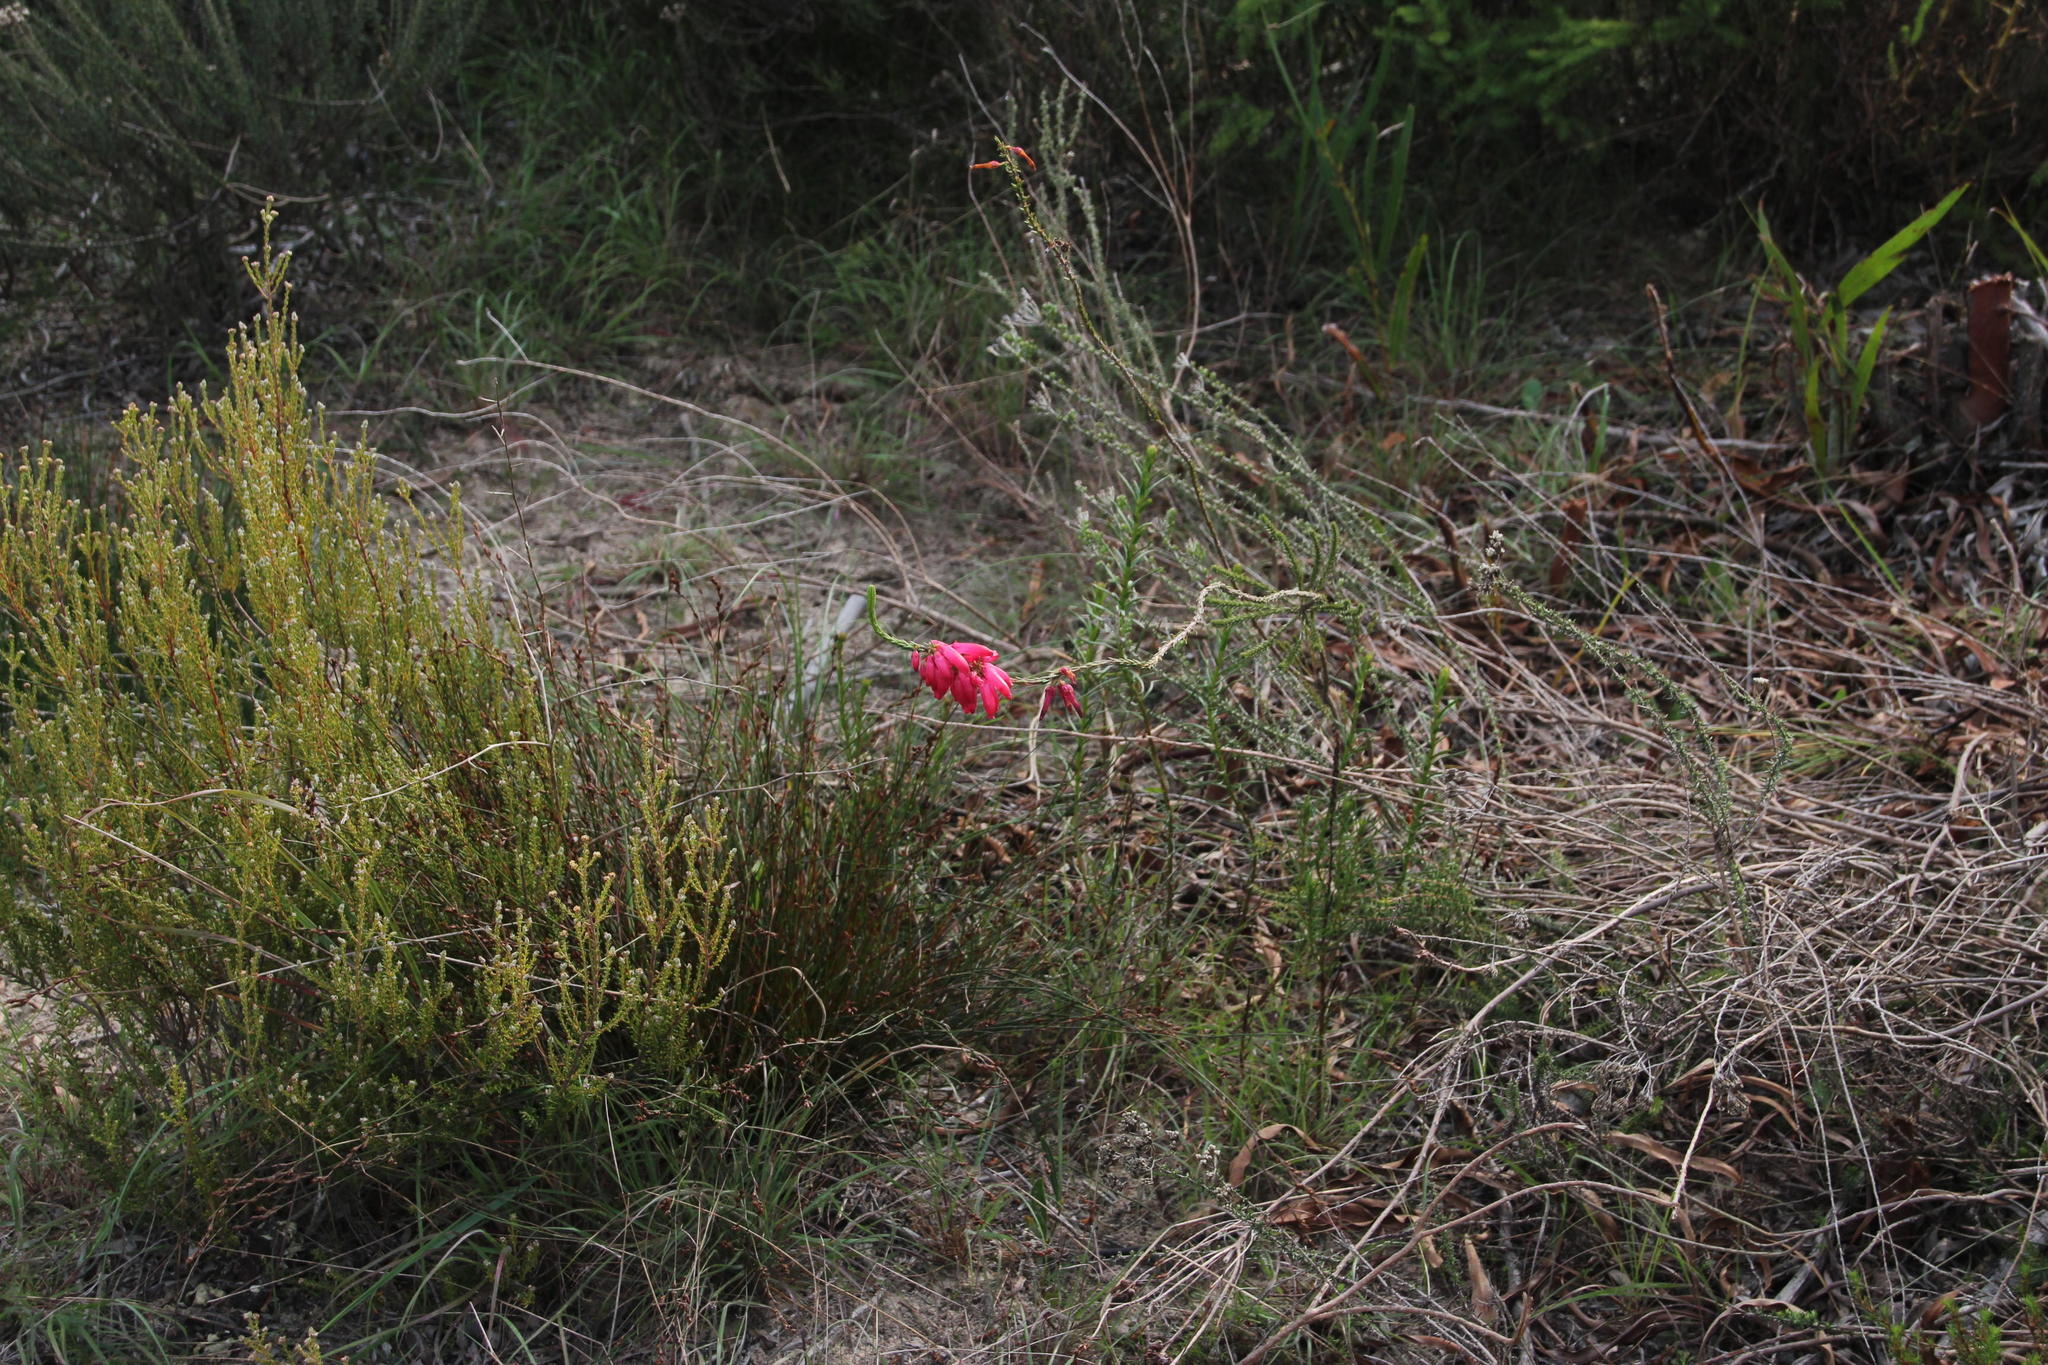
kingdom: Plantae
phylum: Tracheophyta
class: Magnoliopsida
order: Ericales
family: Ericaceae
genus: Erica
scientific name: Erica mammosa
